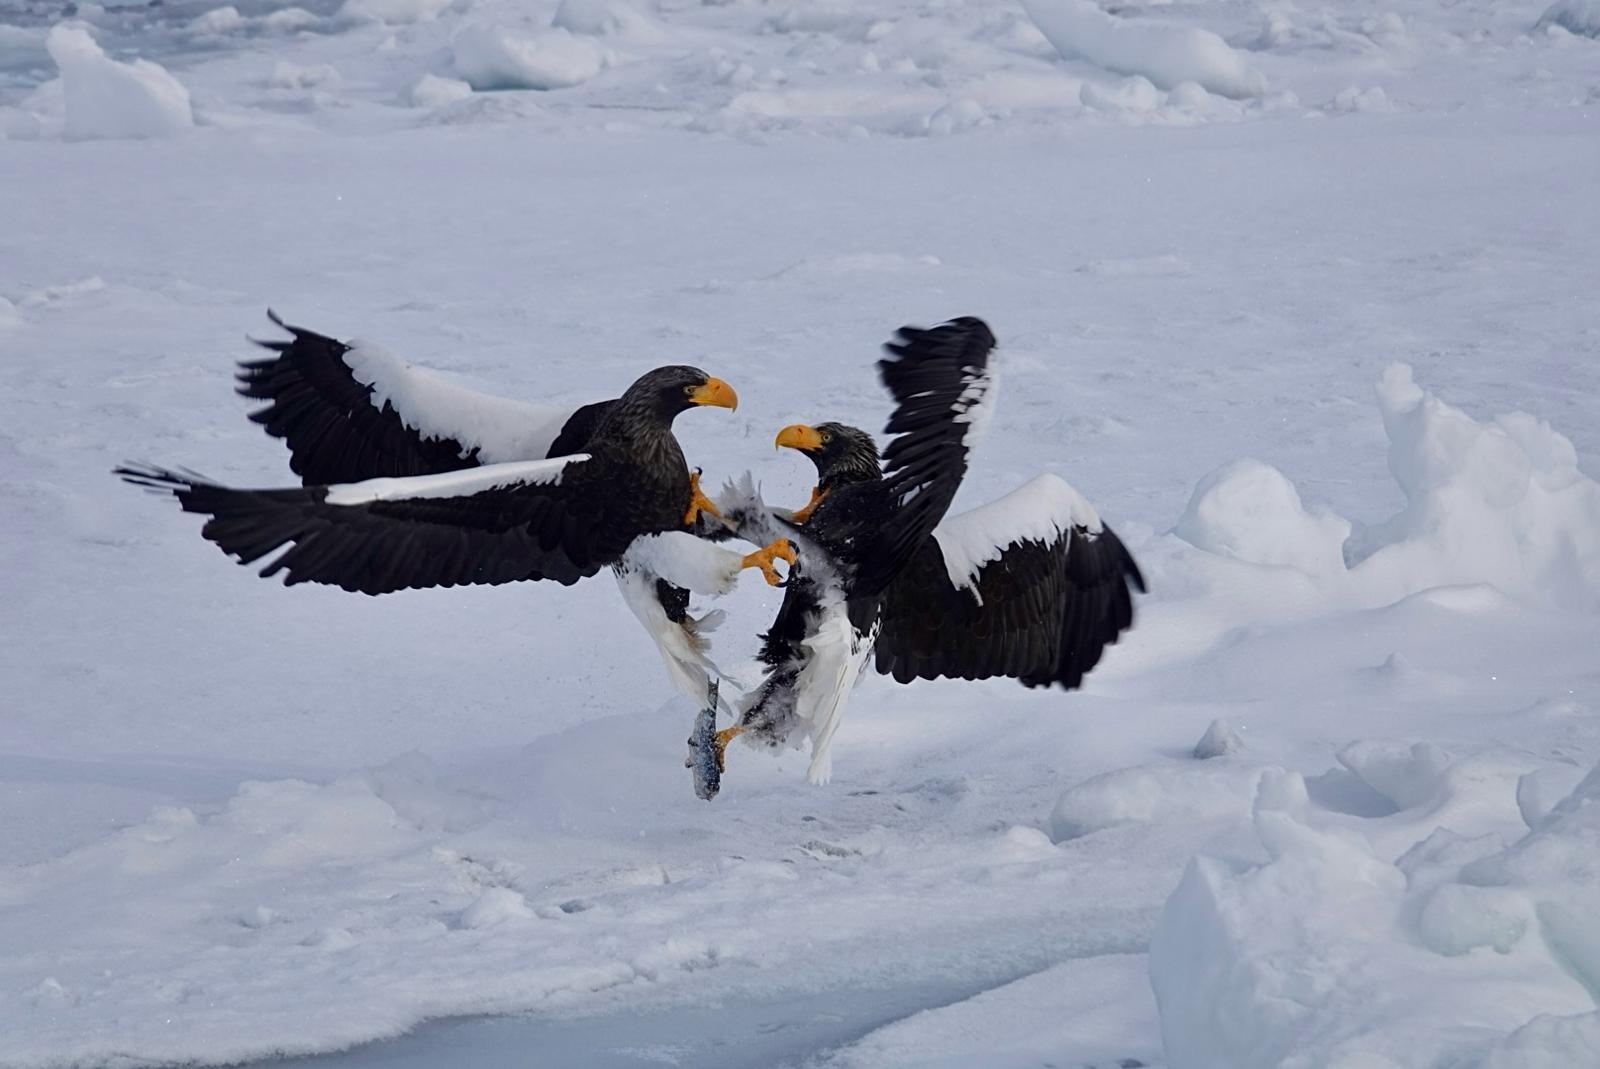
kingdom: Animalia
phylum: Chordata
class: Aves
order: Accipitriformes
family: Accipitridae
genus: Haliaeetus
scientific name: Haliaeetus pelagicus
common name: Steller's sea eagle
